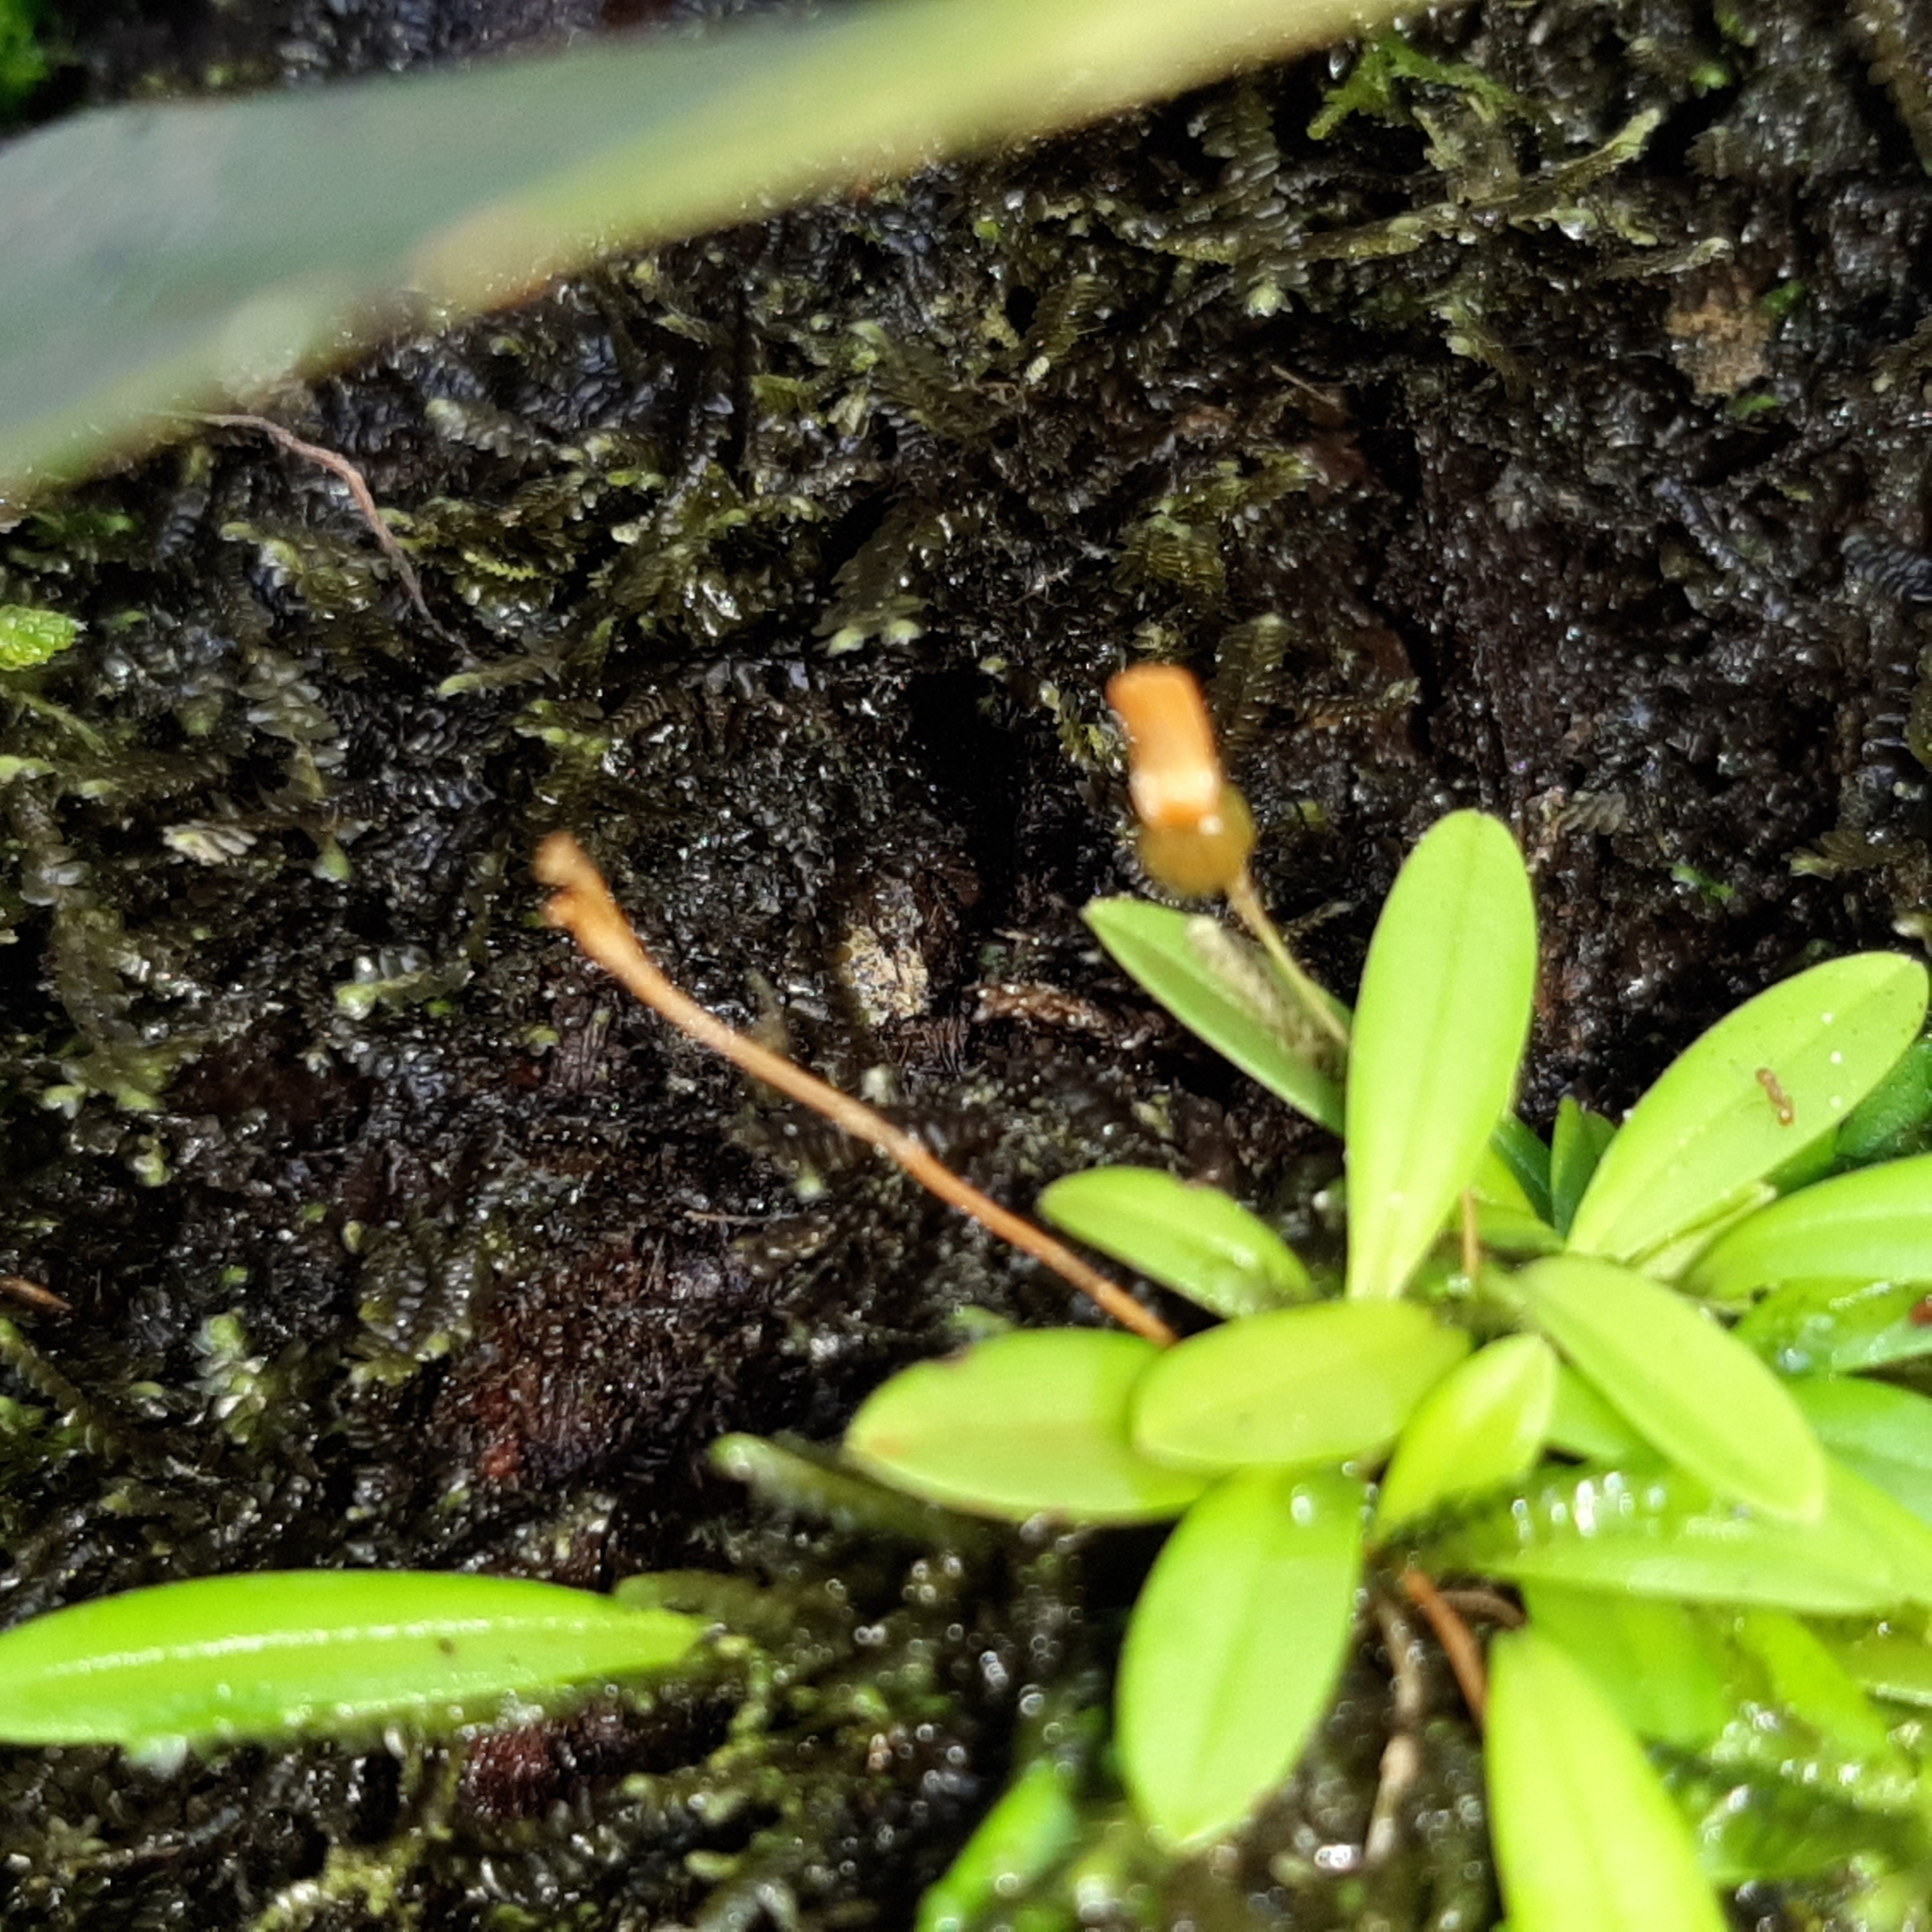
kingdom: Plantae
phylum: Tracheophyta
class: Liliopsida
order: Asparagales
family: Orchidaceae
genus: Specklinia
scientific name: Specklinia lanceola
